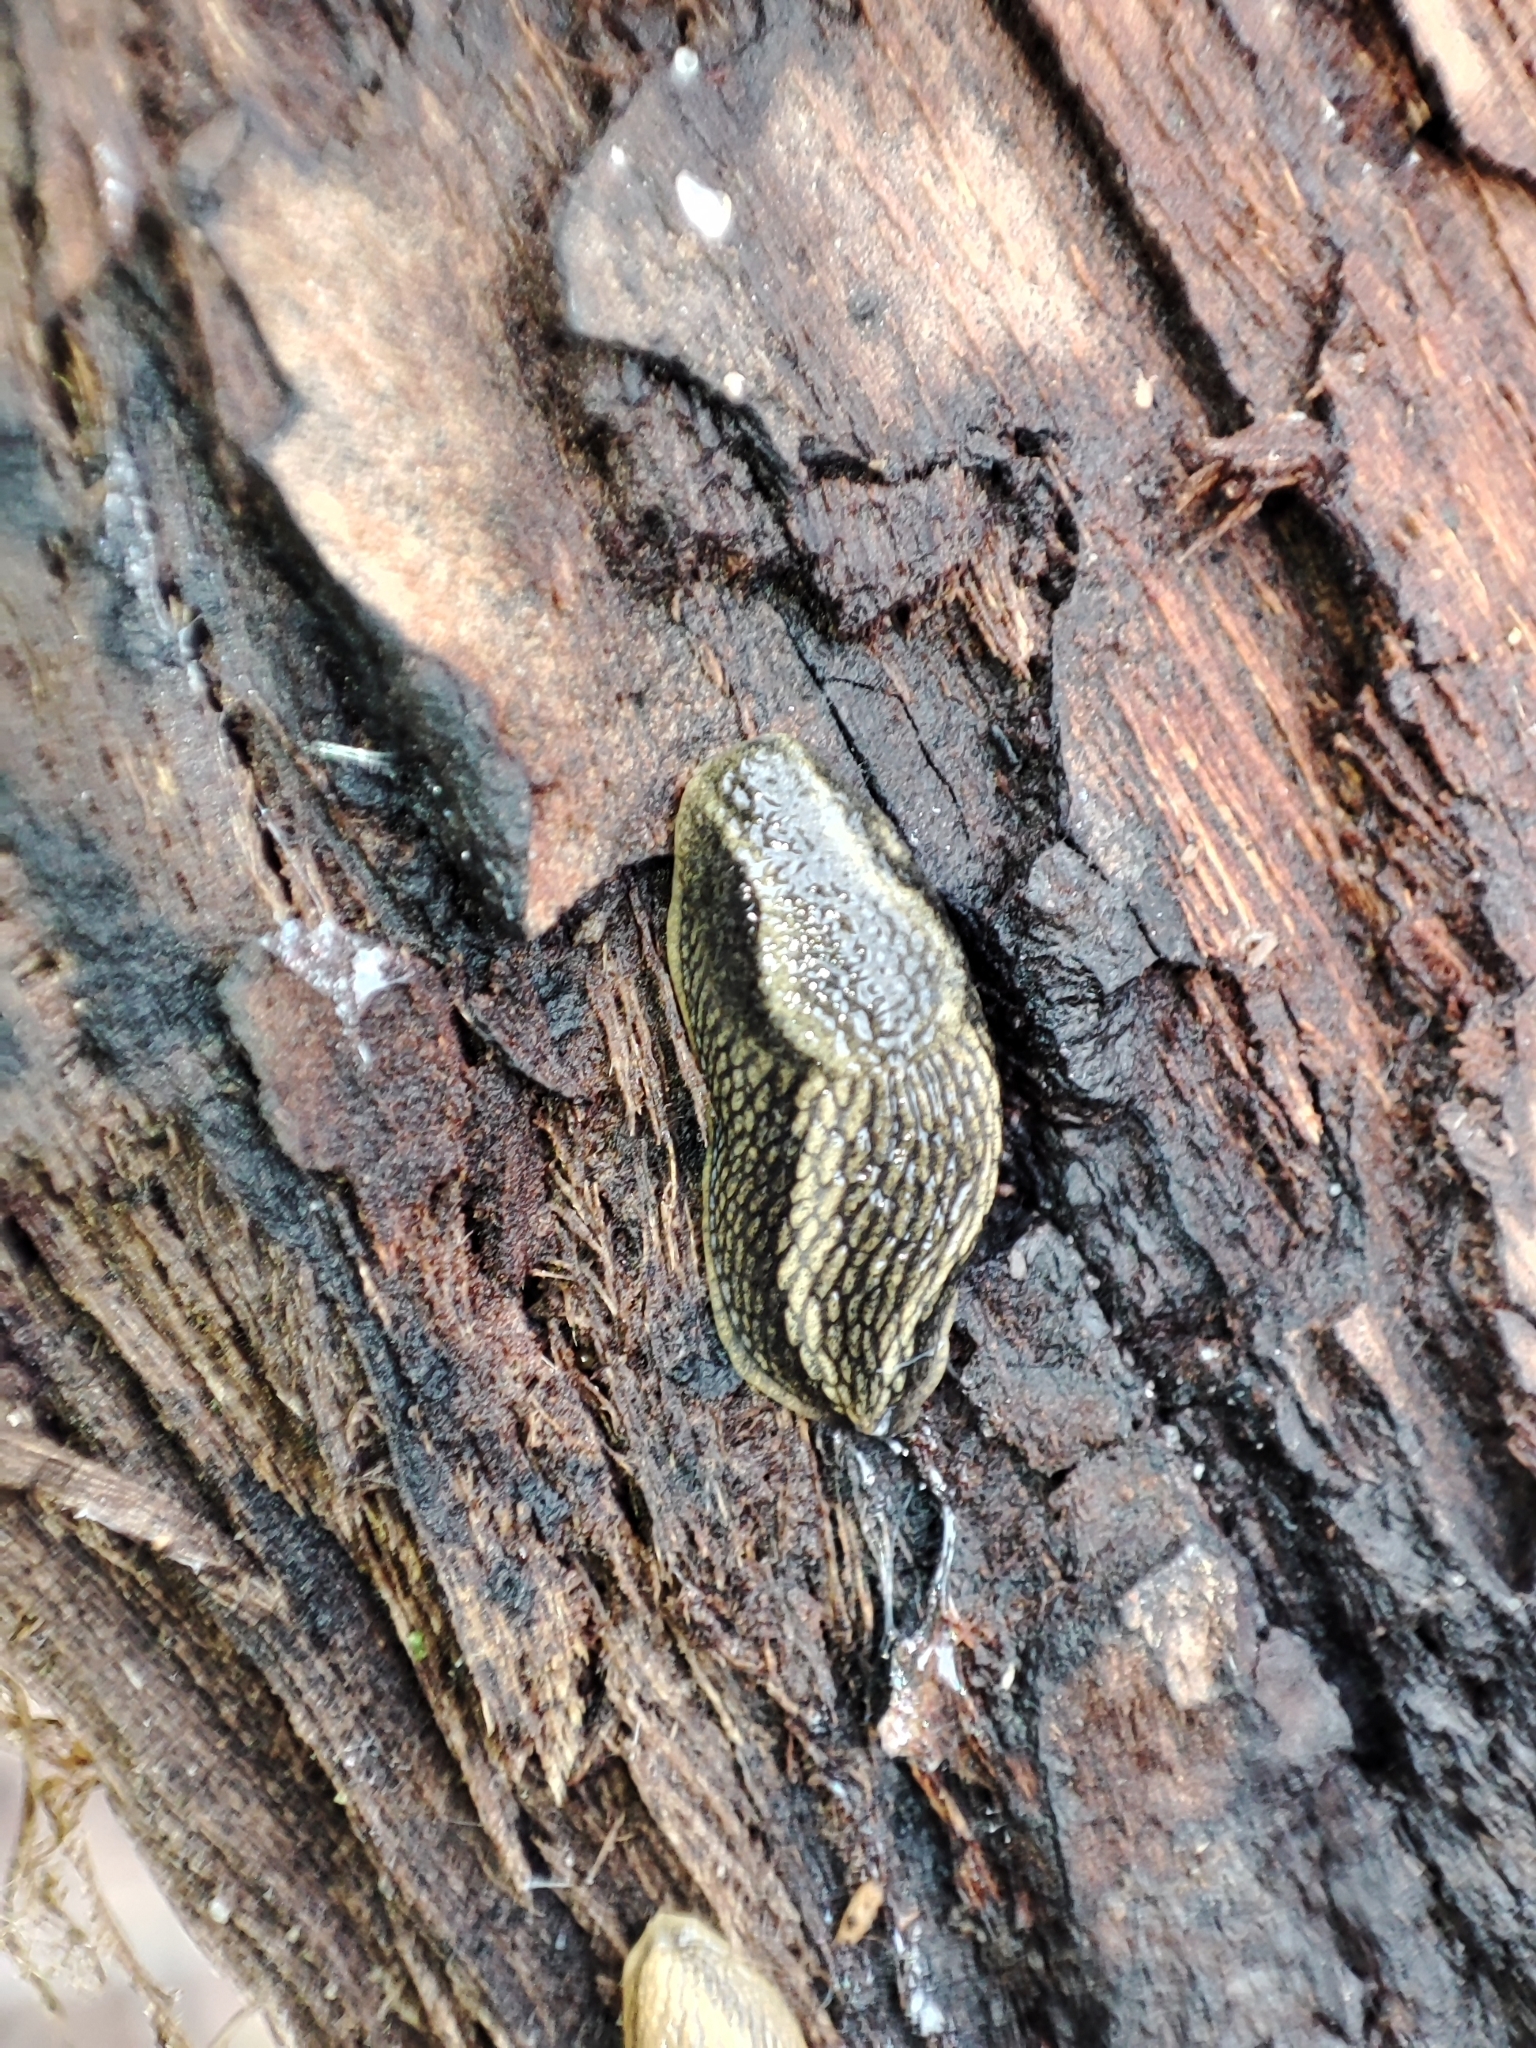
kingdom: Animalia
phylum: Mollusca
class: Gastropoda
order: Stylommatophora
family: Arionidae
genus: Arion
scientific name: Arion vulgaris
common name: Lusitanian slug
